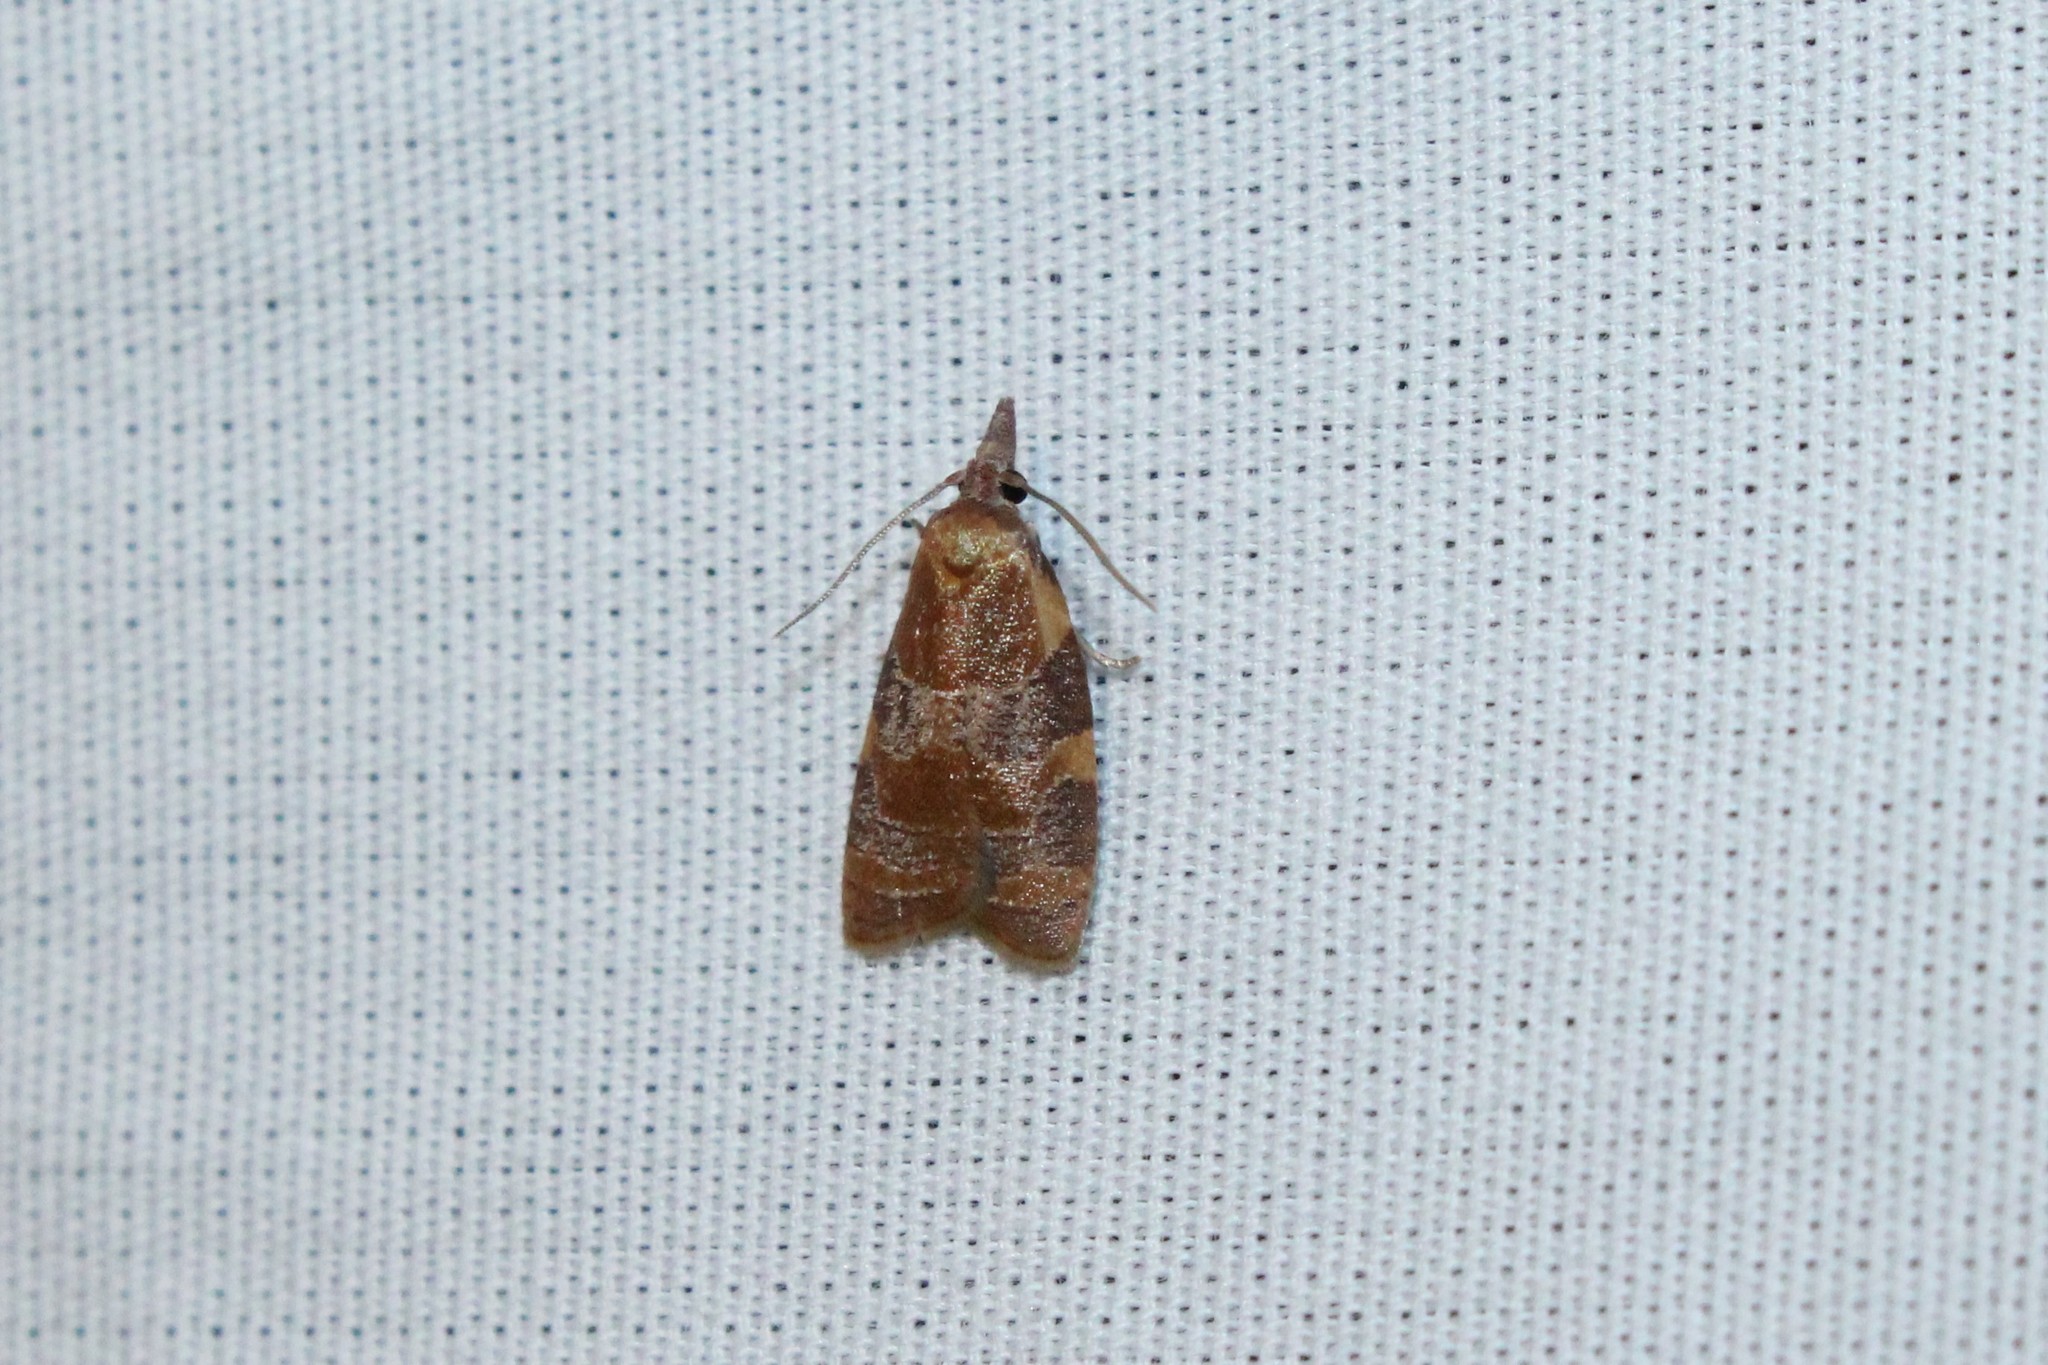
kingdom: Animalia
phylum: Arthropoda
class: Insecta
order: Lepidoptera
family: Tortricidae
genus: Cenopis
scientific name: Cenopis diluticostana
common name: Spring dead-leaf roller moth
